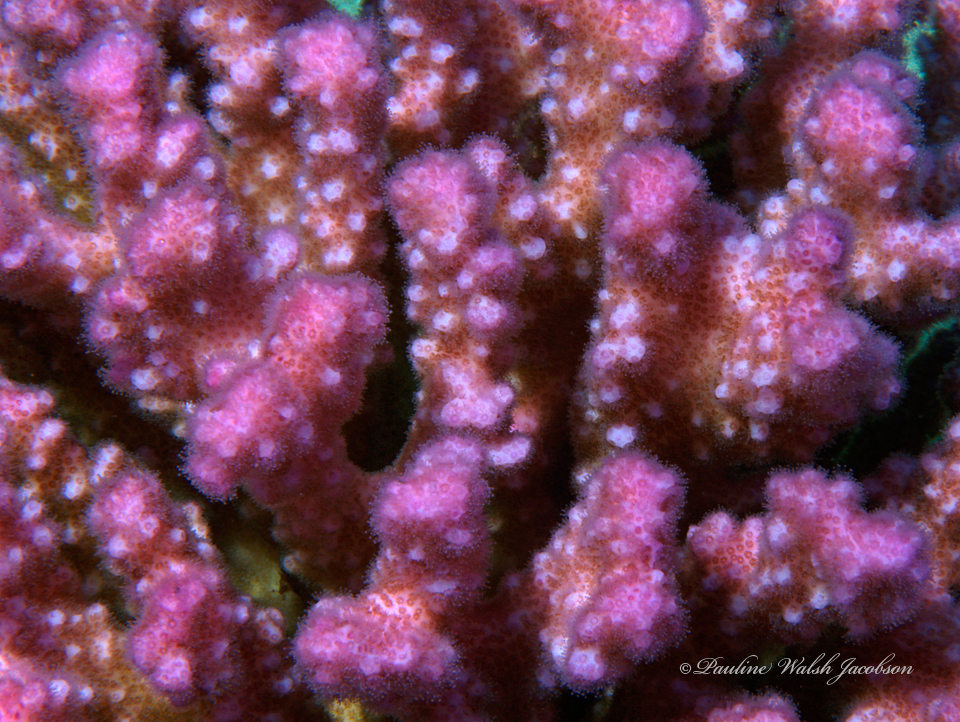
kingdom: Animalia
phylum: Cnidaria
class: Anthozoa
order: Scleractinia
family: Pocilloporidae
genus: Pocillopora
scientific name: Pocillopora verrucosa
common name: Cauliflower coral
